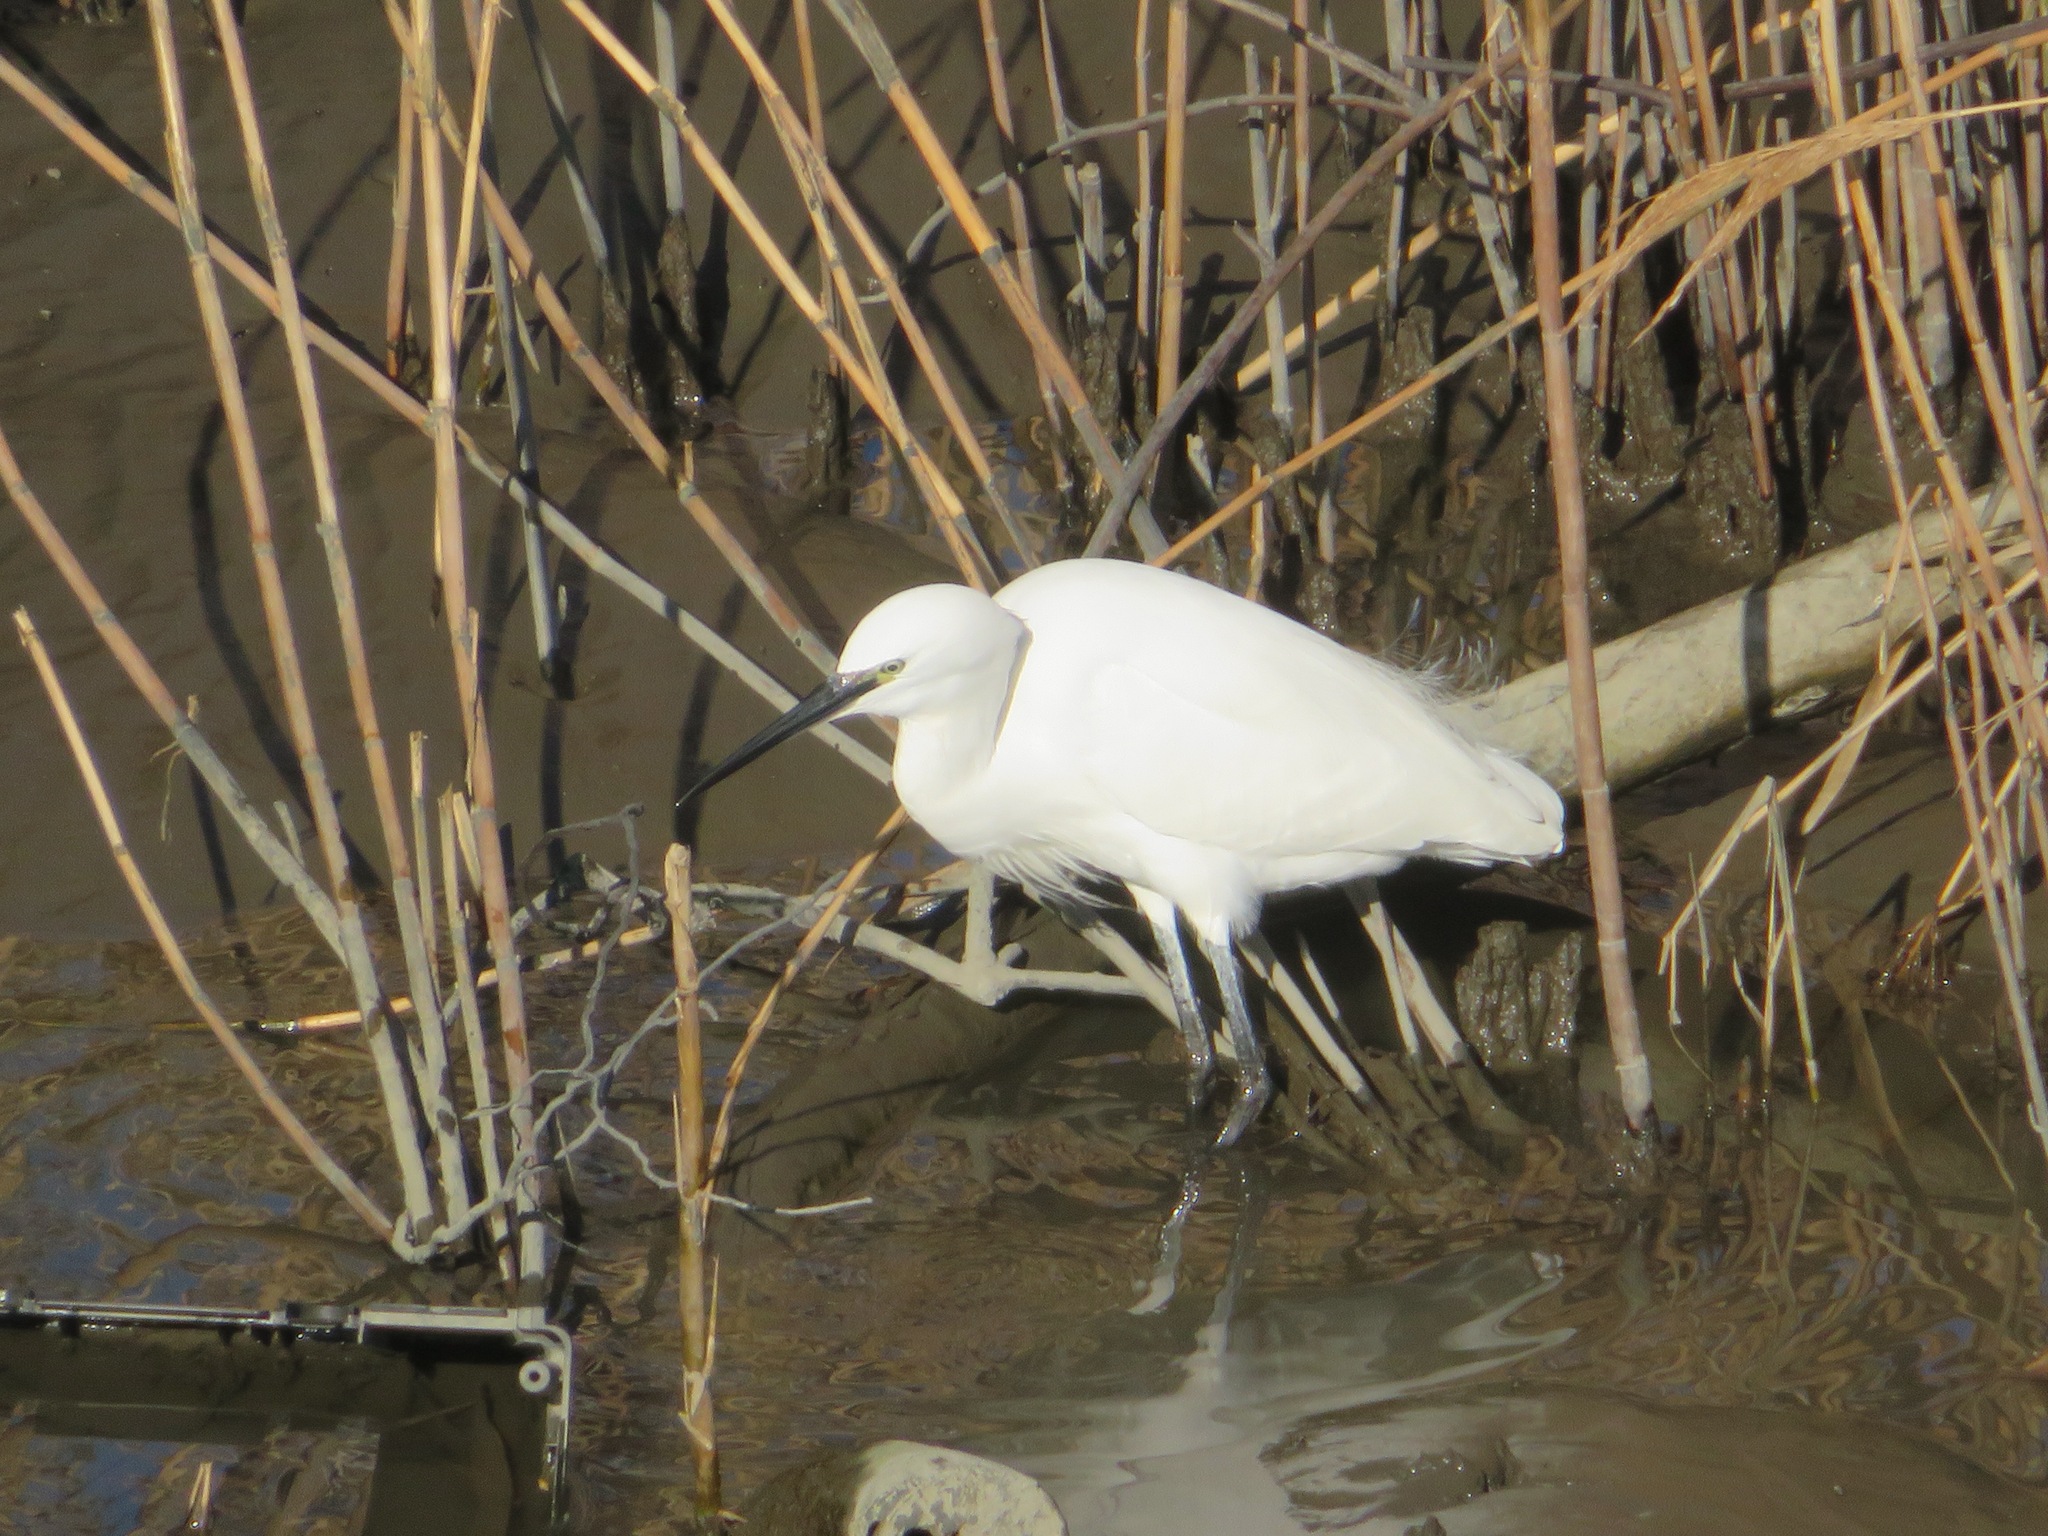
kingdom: Animalia
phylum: Chordata
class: Aves
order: Pelecaniformes
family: Ardeidae
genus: Egretta
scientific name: Egretta garzetta
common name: Little egret
